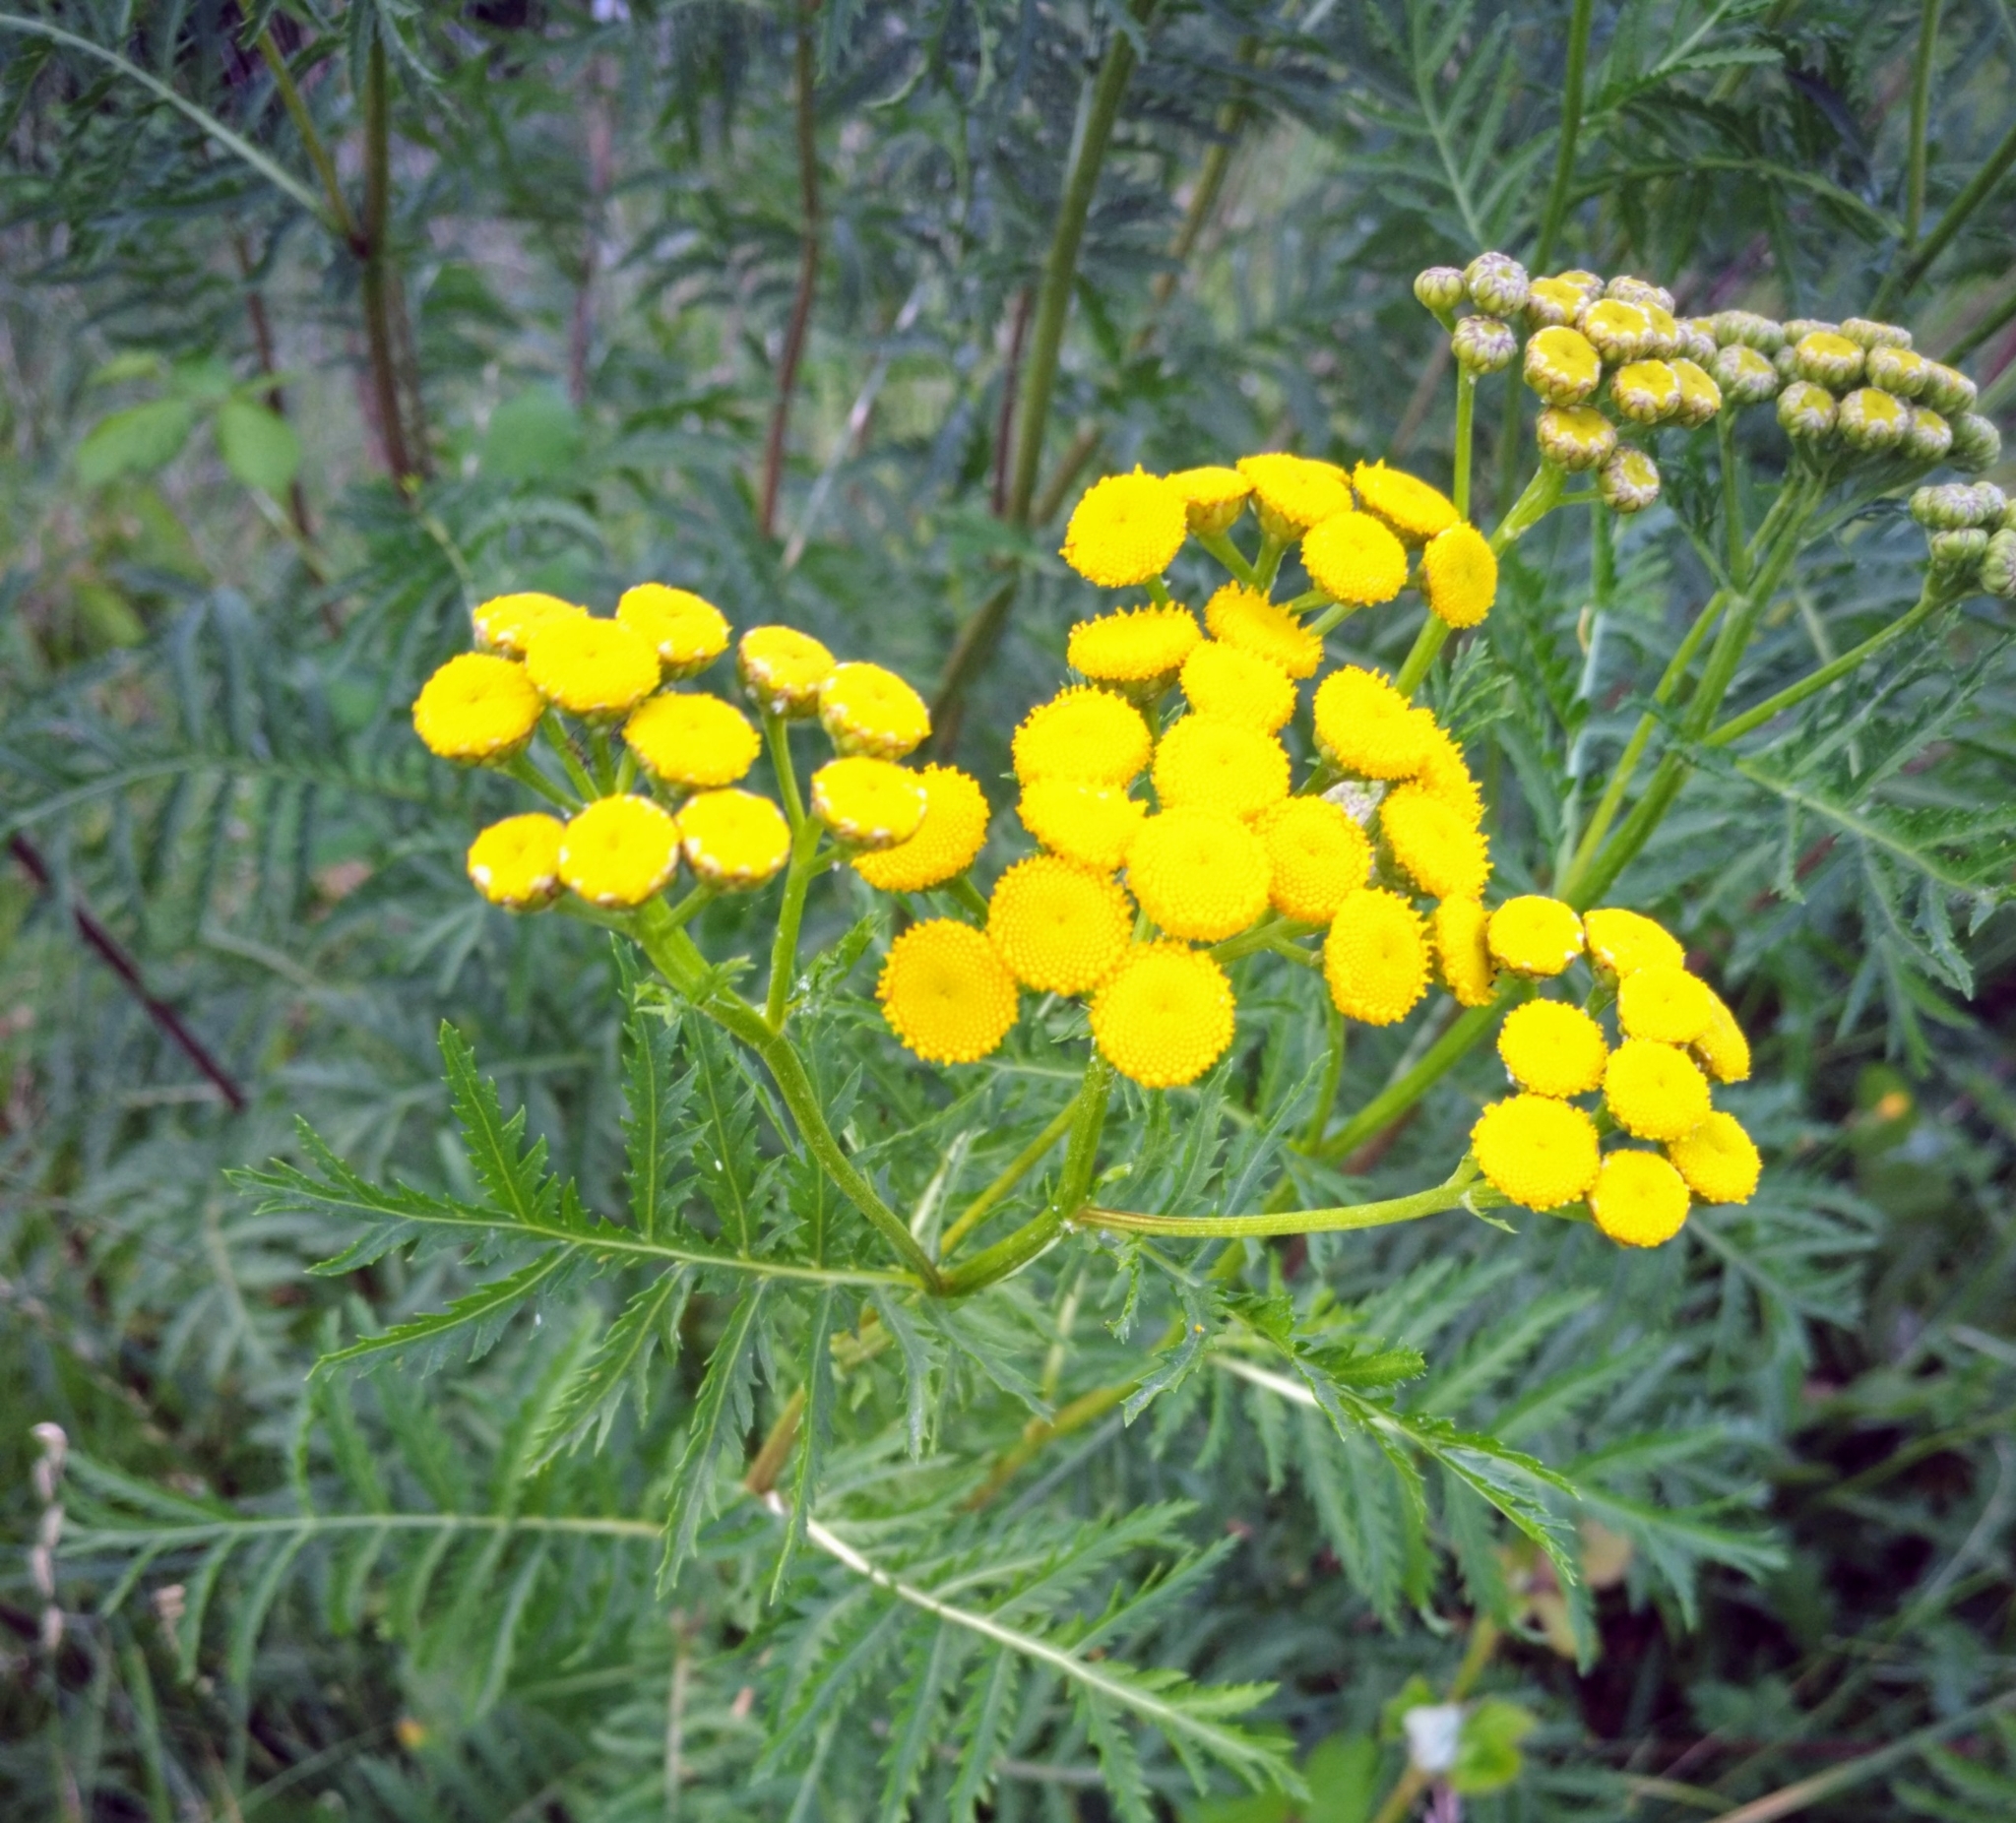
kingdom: Plantae
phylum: Tracheophyta
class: Magnoliopsida
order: Asterales
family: Asteraceae
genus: Tanacetum
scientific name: Tanacetum vulgare
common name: Common tansy
